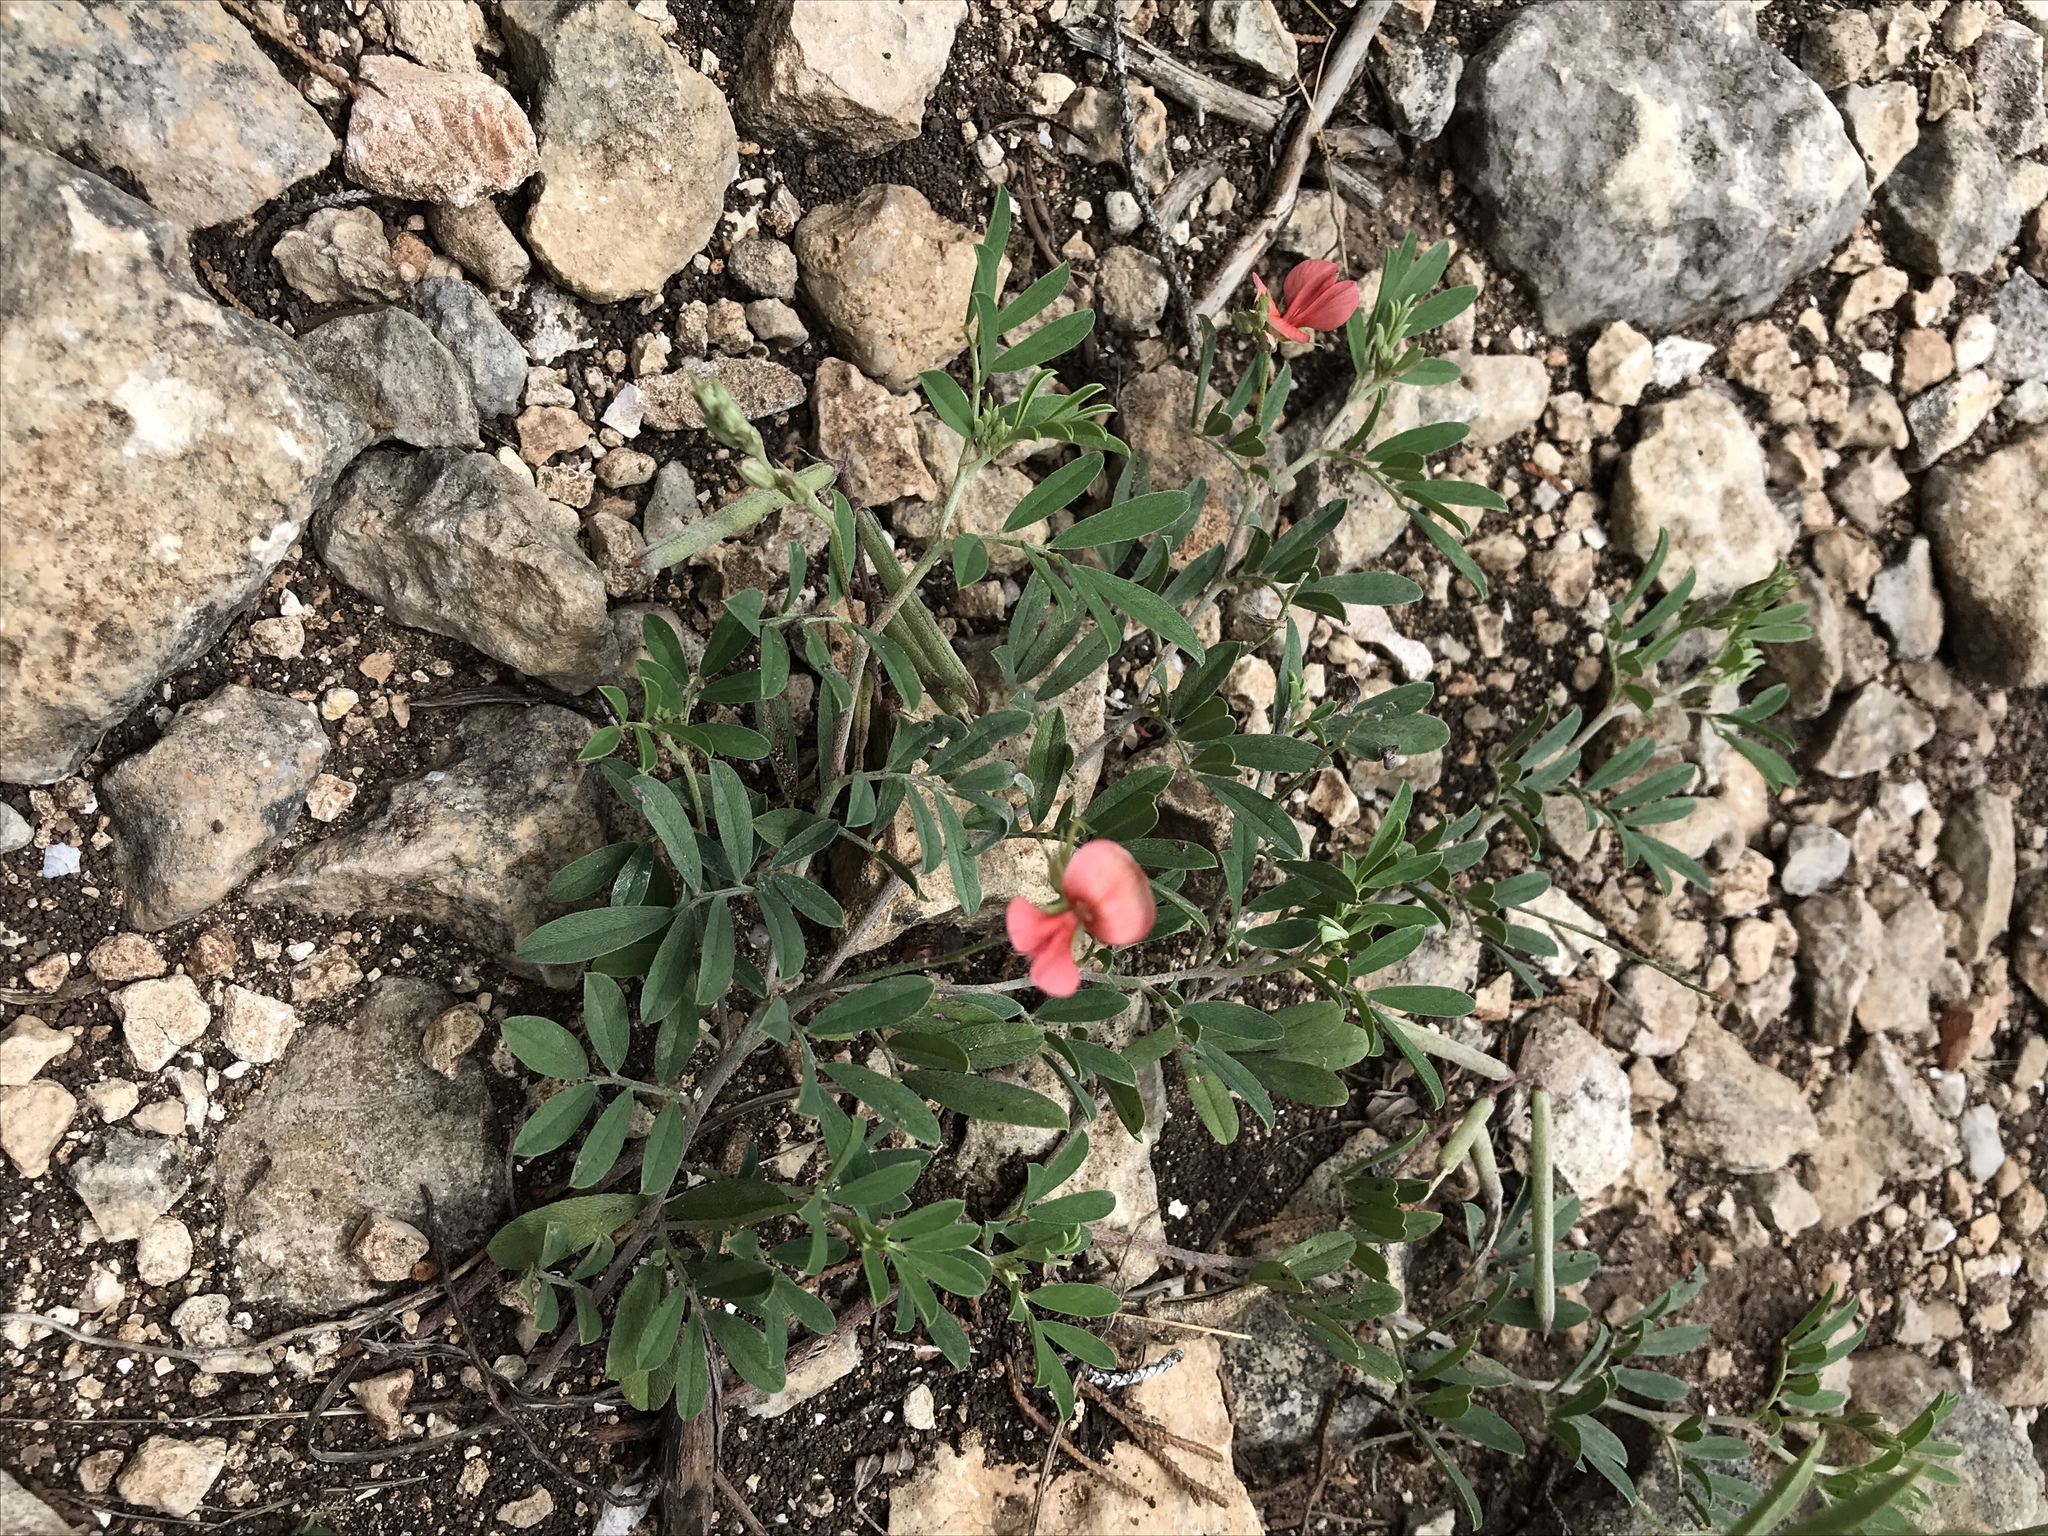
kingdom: Plantae
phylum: Tracheophyta
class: Magnoliopsida
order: Fabales
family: Fabaceae
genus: Indigofera
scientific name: Indigofera miniata
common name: Coast indigo
